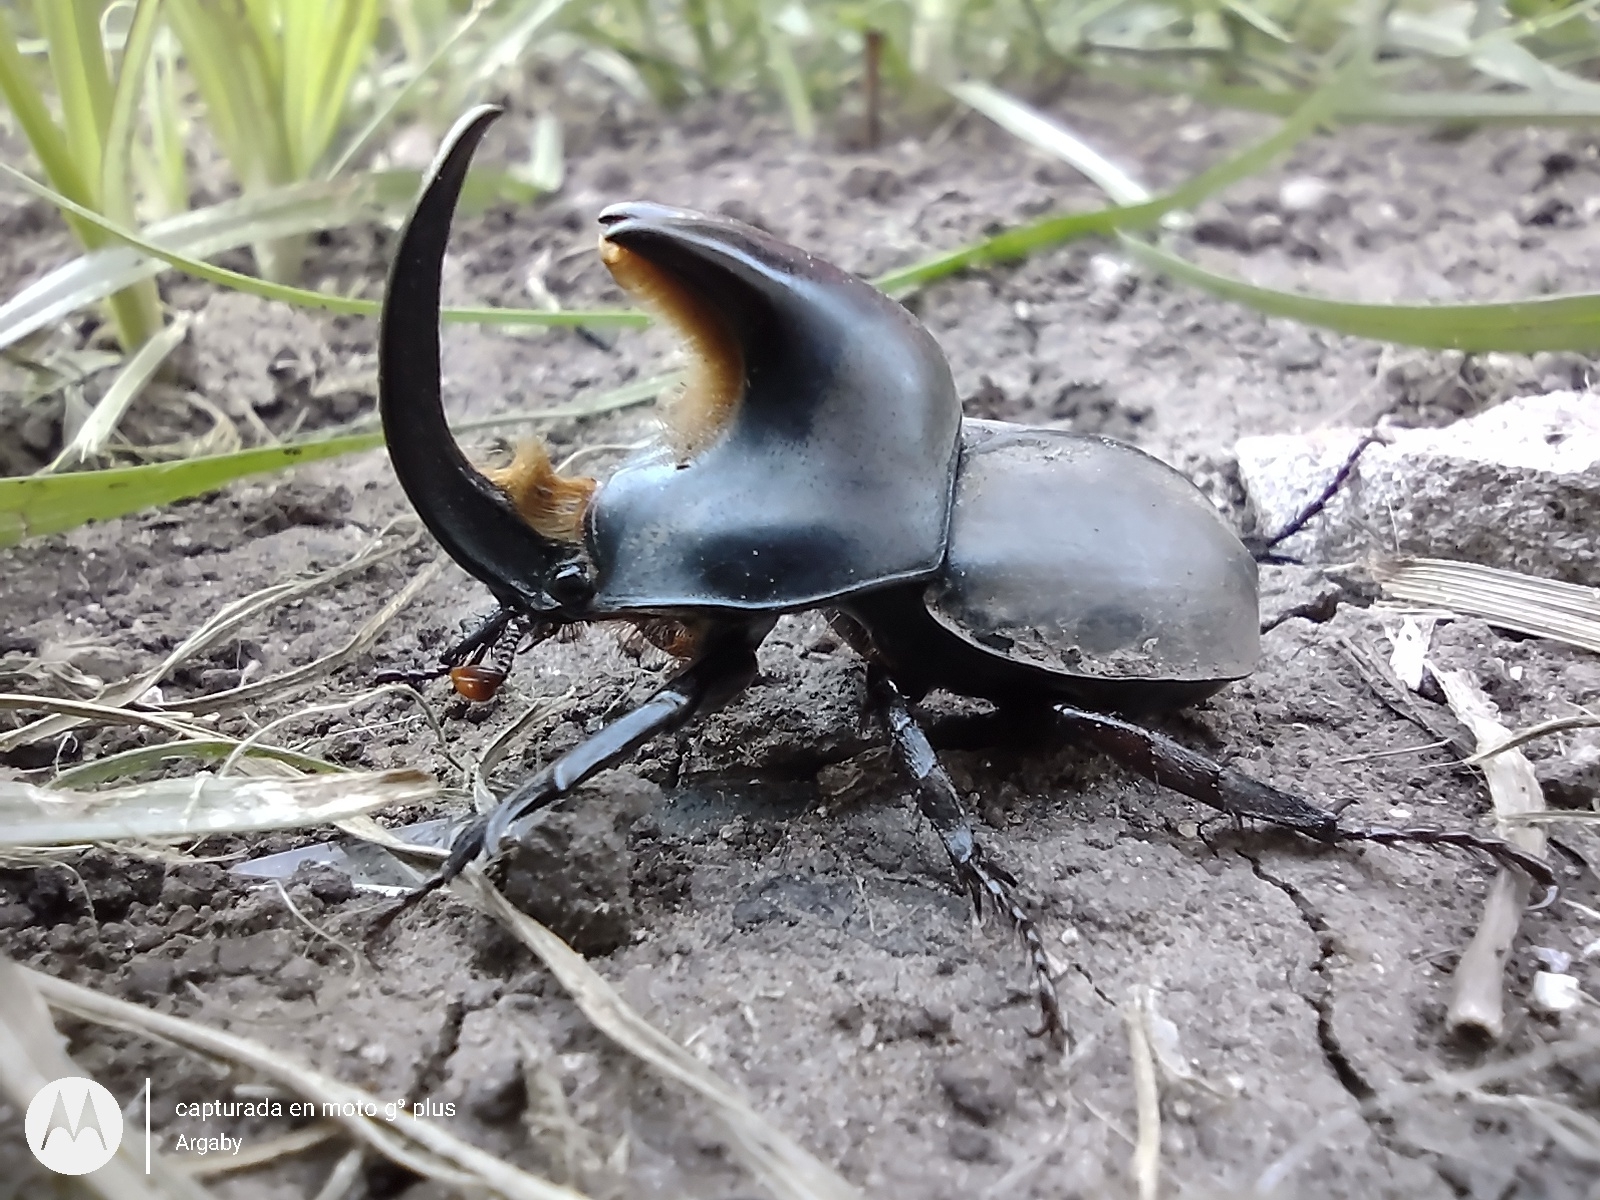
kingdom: Animalia
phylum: Arthropoda
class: Insecta
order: Coleoptera
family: Scarabaeidae
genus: Diloboderus
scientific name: Diloboderus abderus
